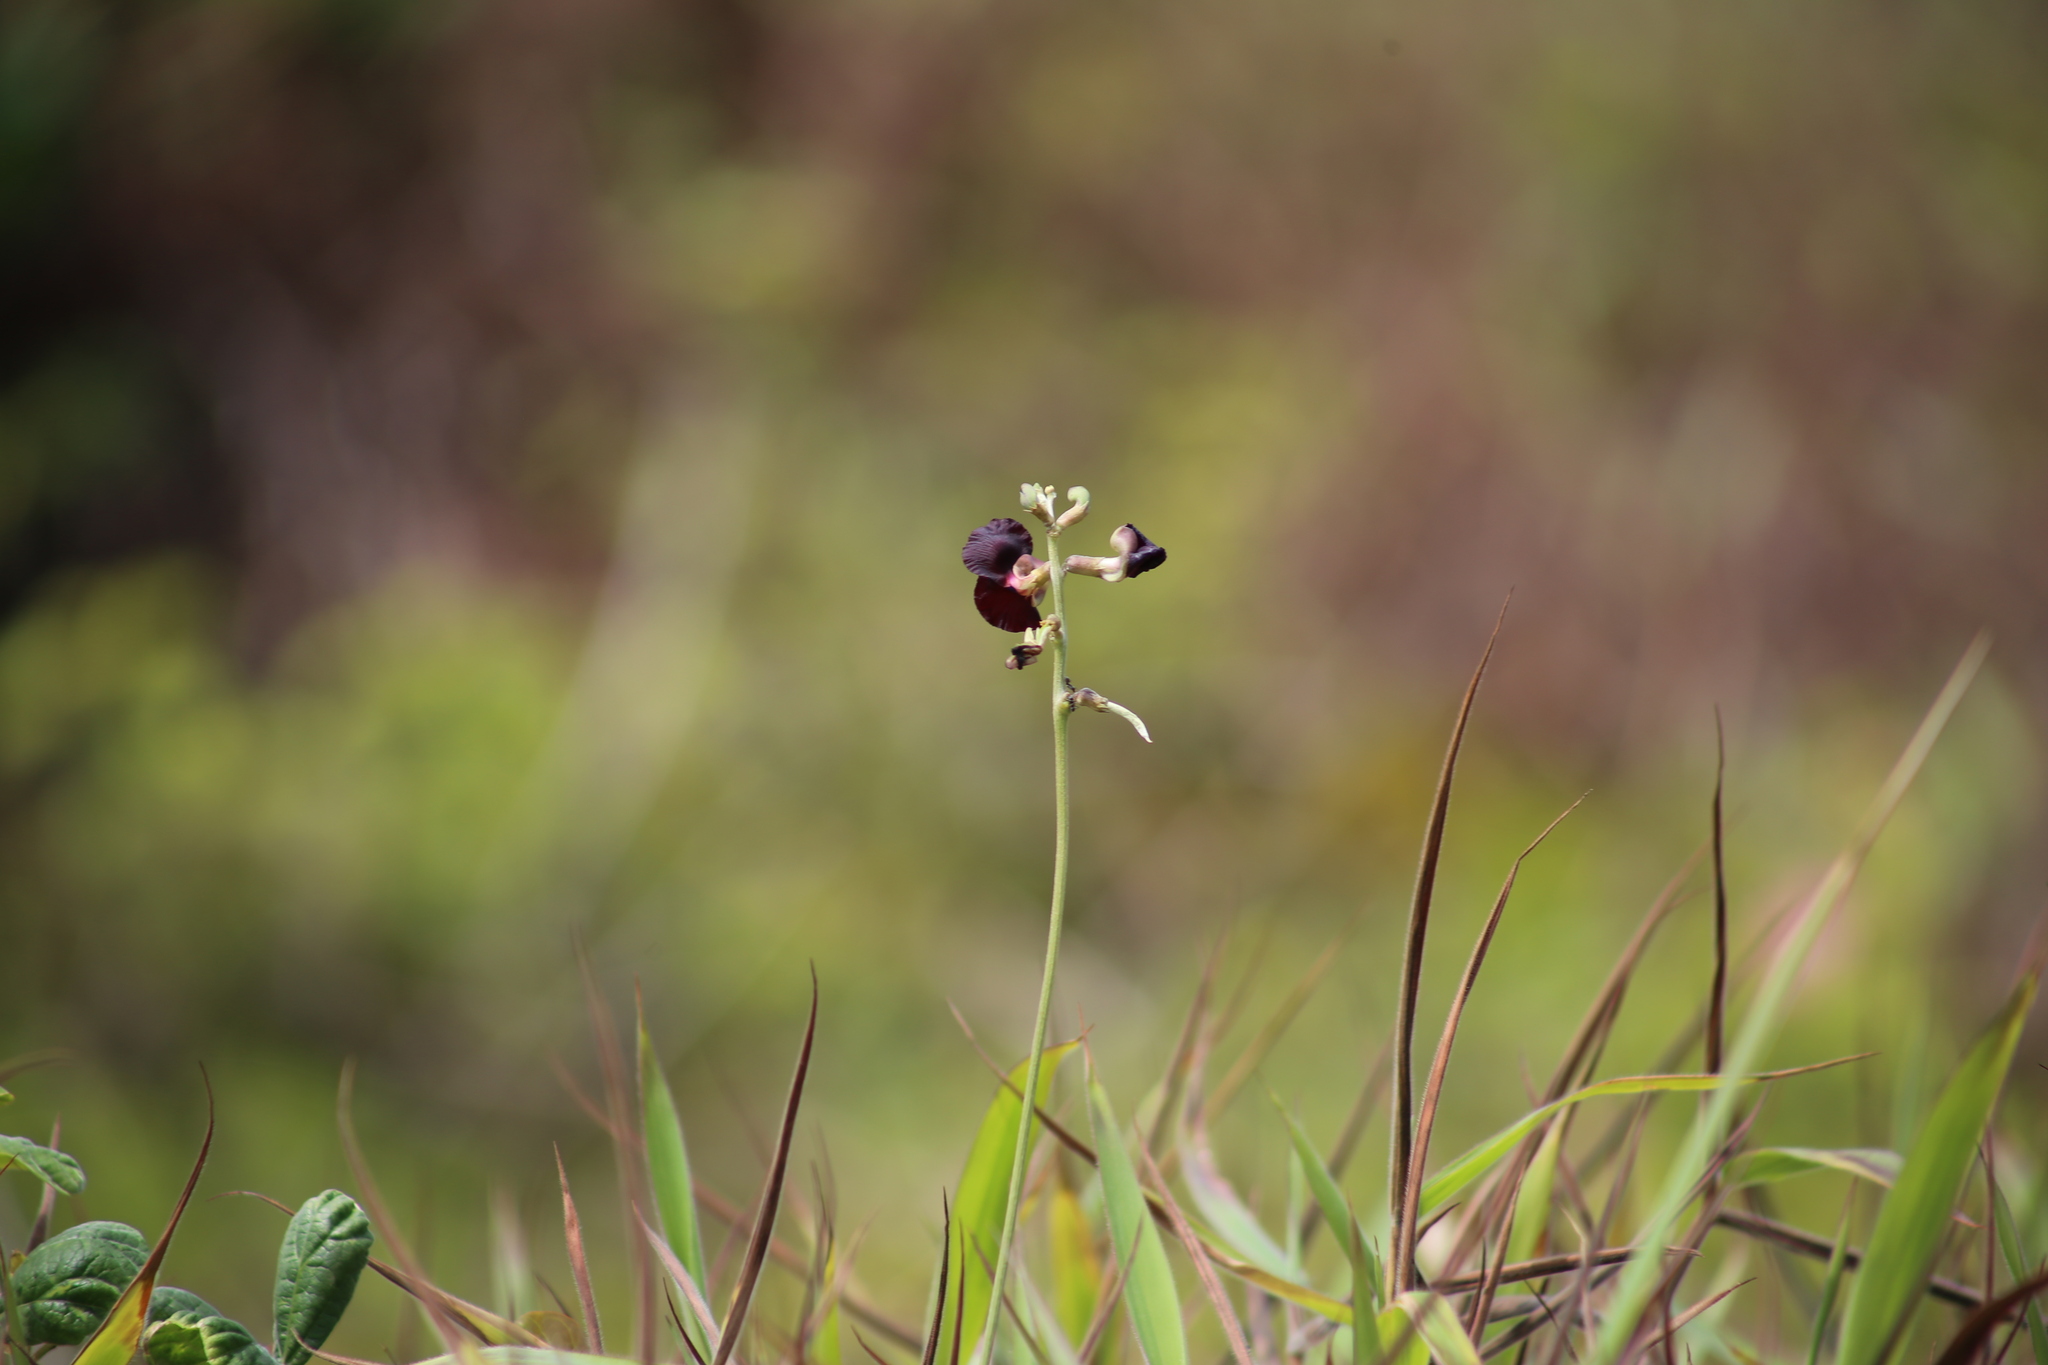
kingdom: Plantae
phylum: Tracheophyta
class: Magnoliopsida
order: Fabales
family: Fabaceae
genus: Macroptilium
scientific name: Macroptilium atropurpureum
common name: Purple bushbean
